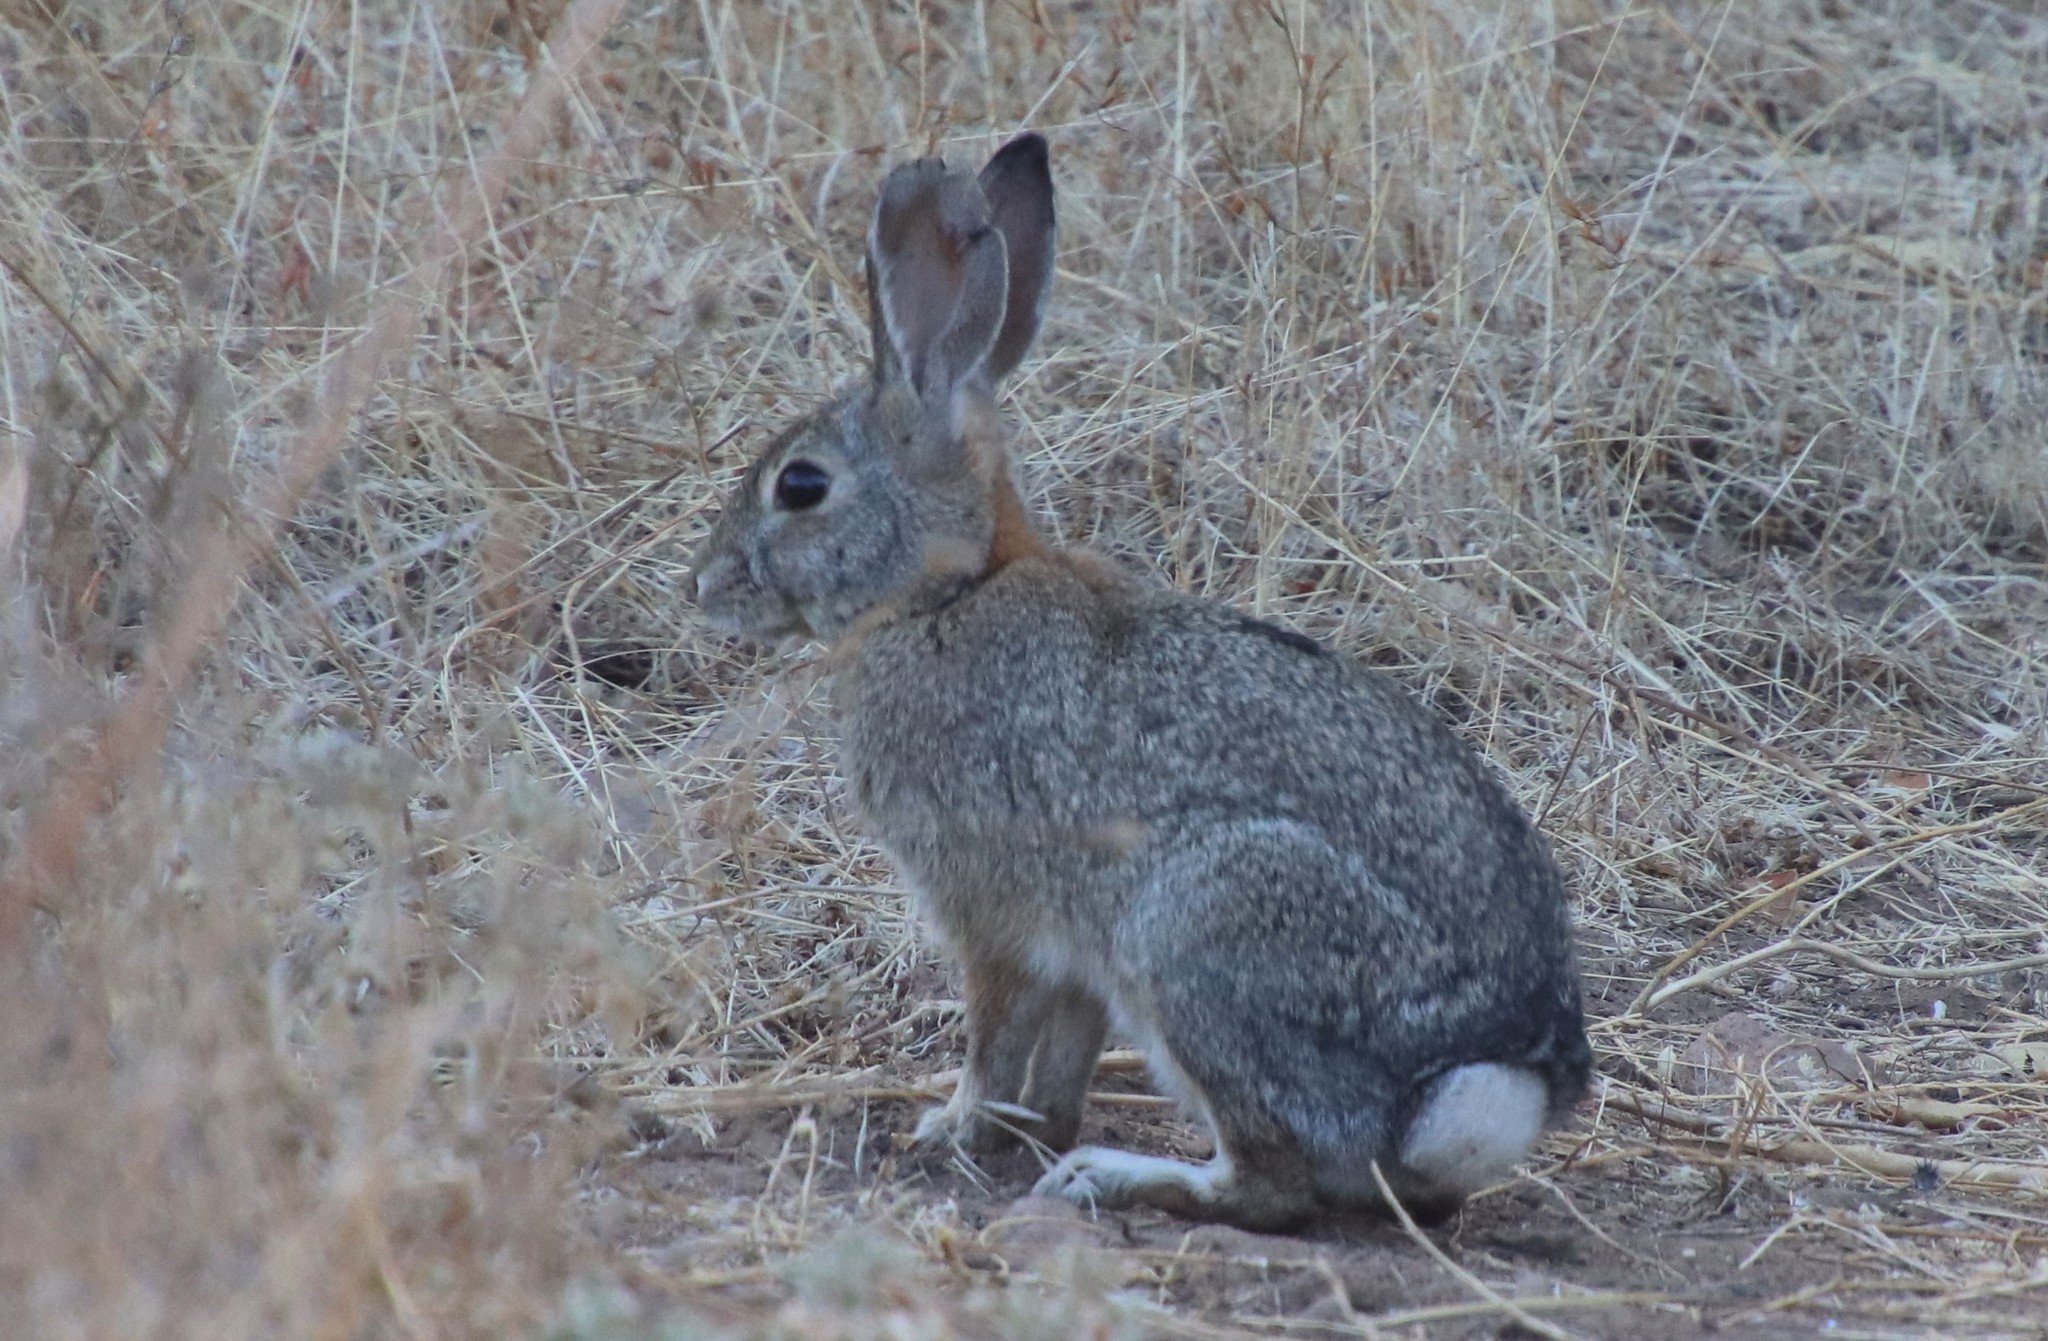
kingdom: Animalia
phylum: Chordata
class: Mammalia
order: Lagomorpha
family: Leporidae
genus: Sylvilagus
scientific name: Sylvilagus audubonii
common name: Desert cottontail
